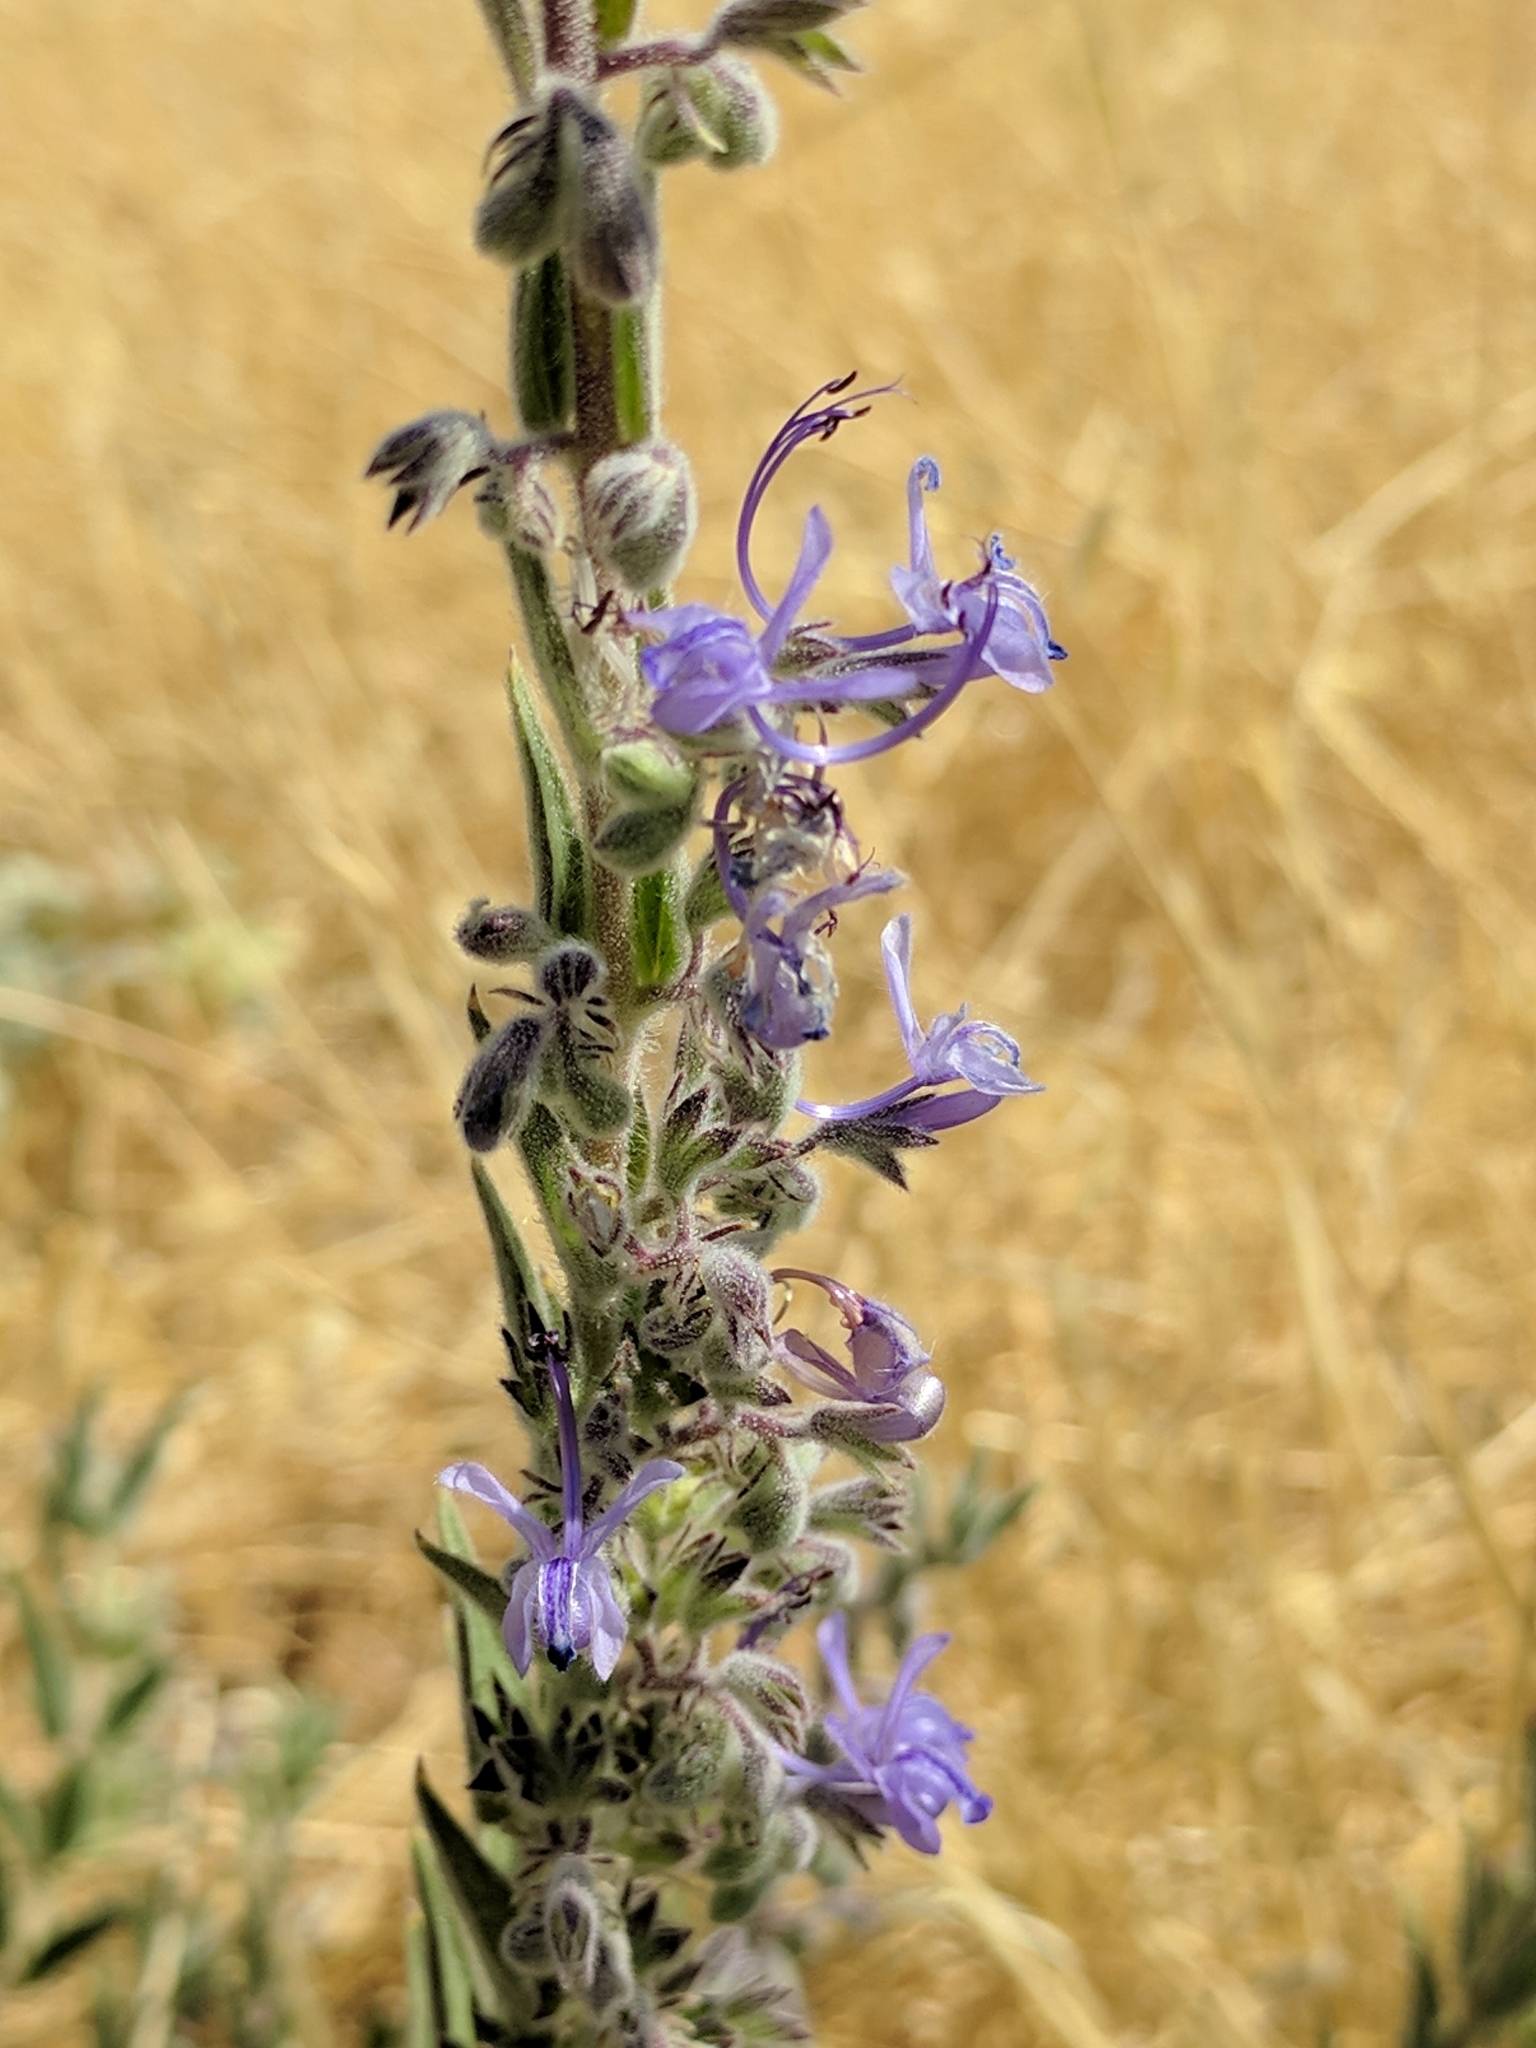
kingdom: Plantae
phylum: Tracheophyta
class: Magnoliopsida
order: Lamiales
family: Lamiaceae
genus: Trichostema
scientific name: Trichostema lanceolatum
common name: Vinegar-weed
